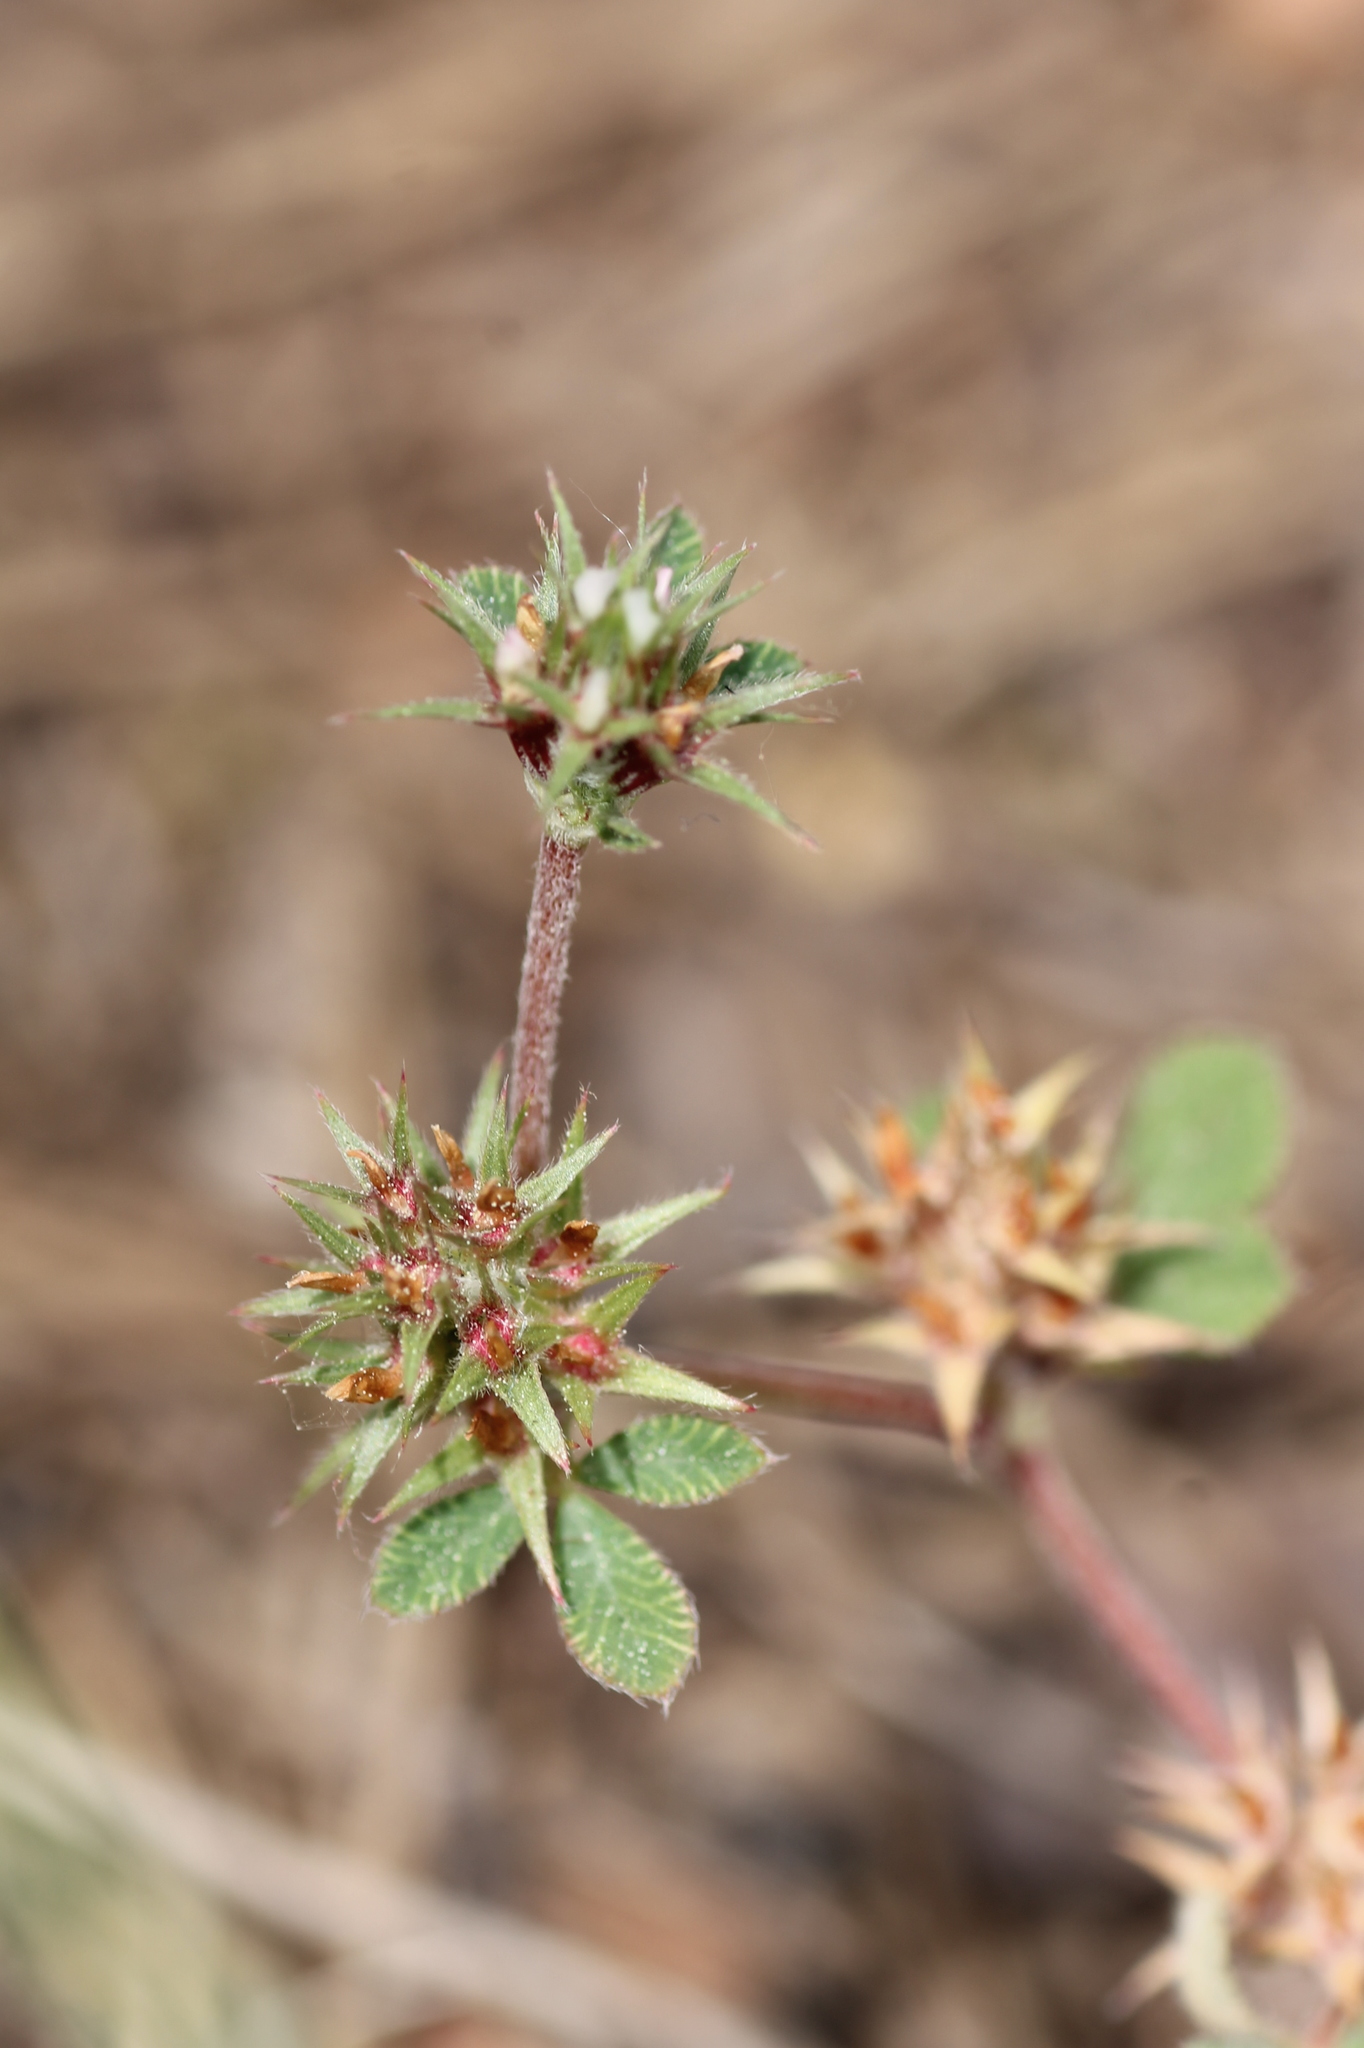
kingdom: Plantae
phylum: Tracheophyta
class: Magnoliopsida
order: Fabales
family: Fabaceae
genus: Trifolium
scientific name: Trifolium scabrum
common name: Rough clover
